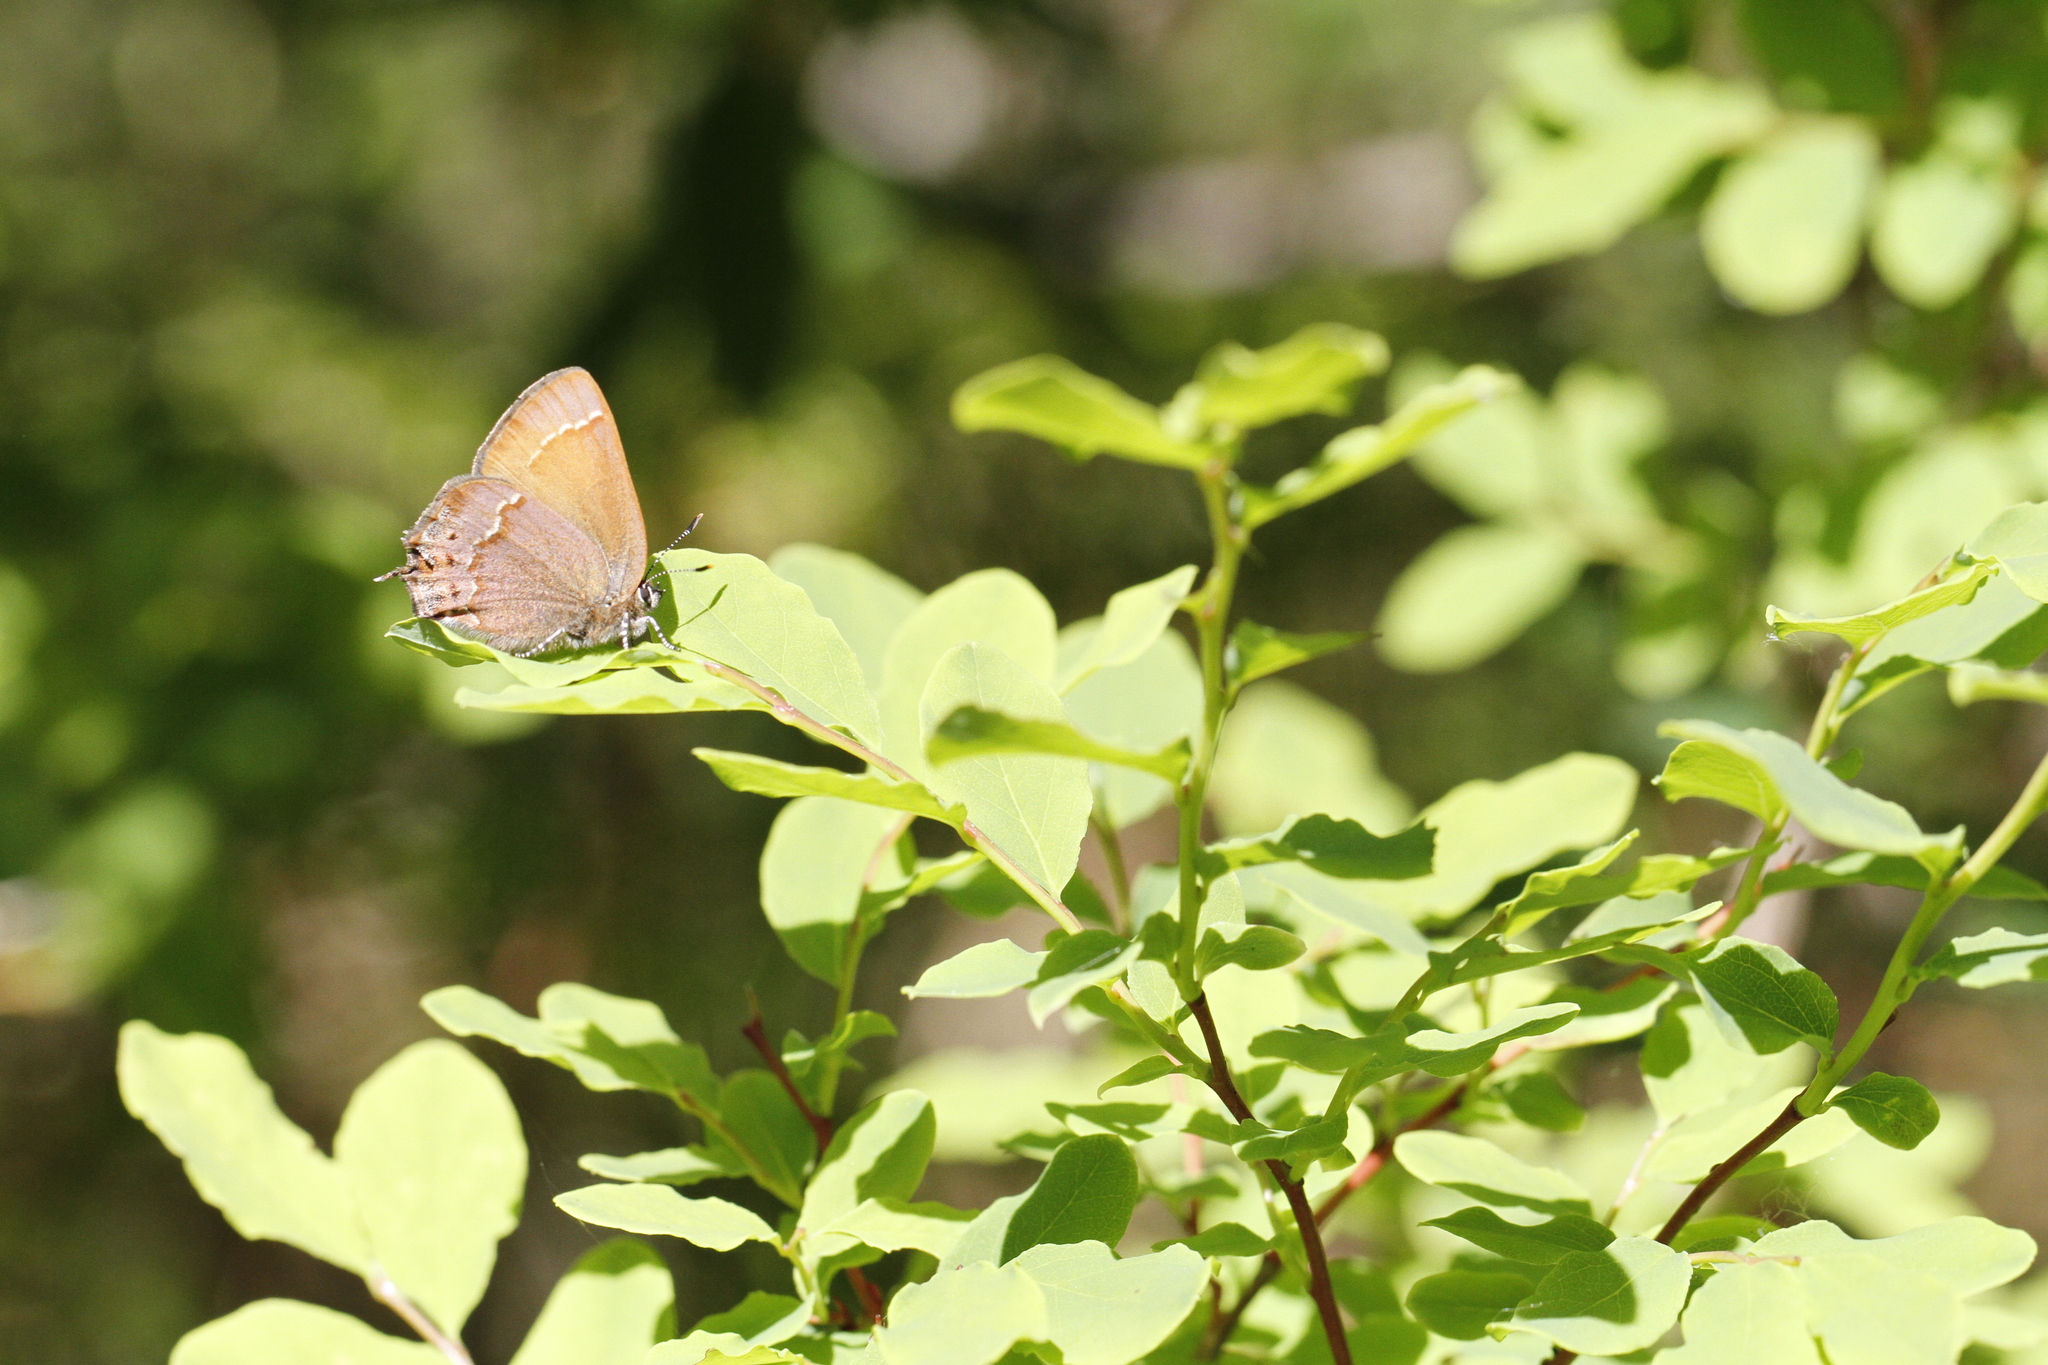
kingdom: Animalia
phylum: Arthropoda
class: Insecta
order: Lepidoptera
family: Lycaenidae
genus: Mitoura
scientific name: Mitoura gryneus
